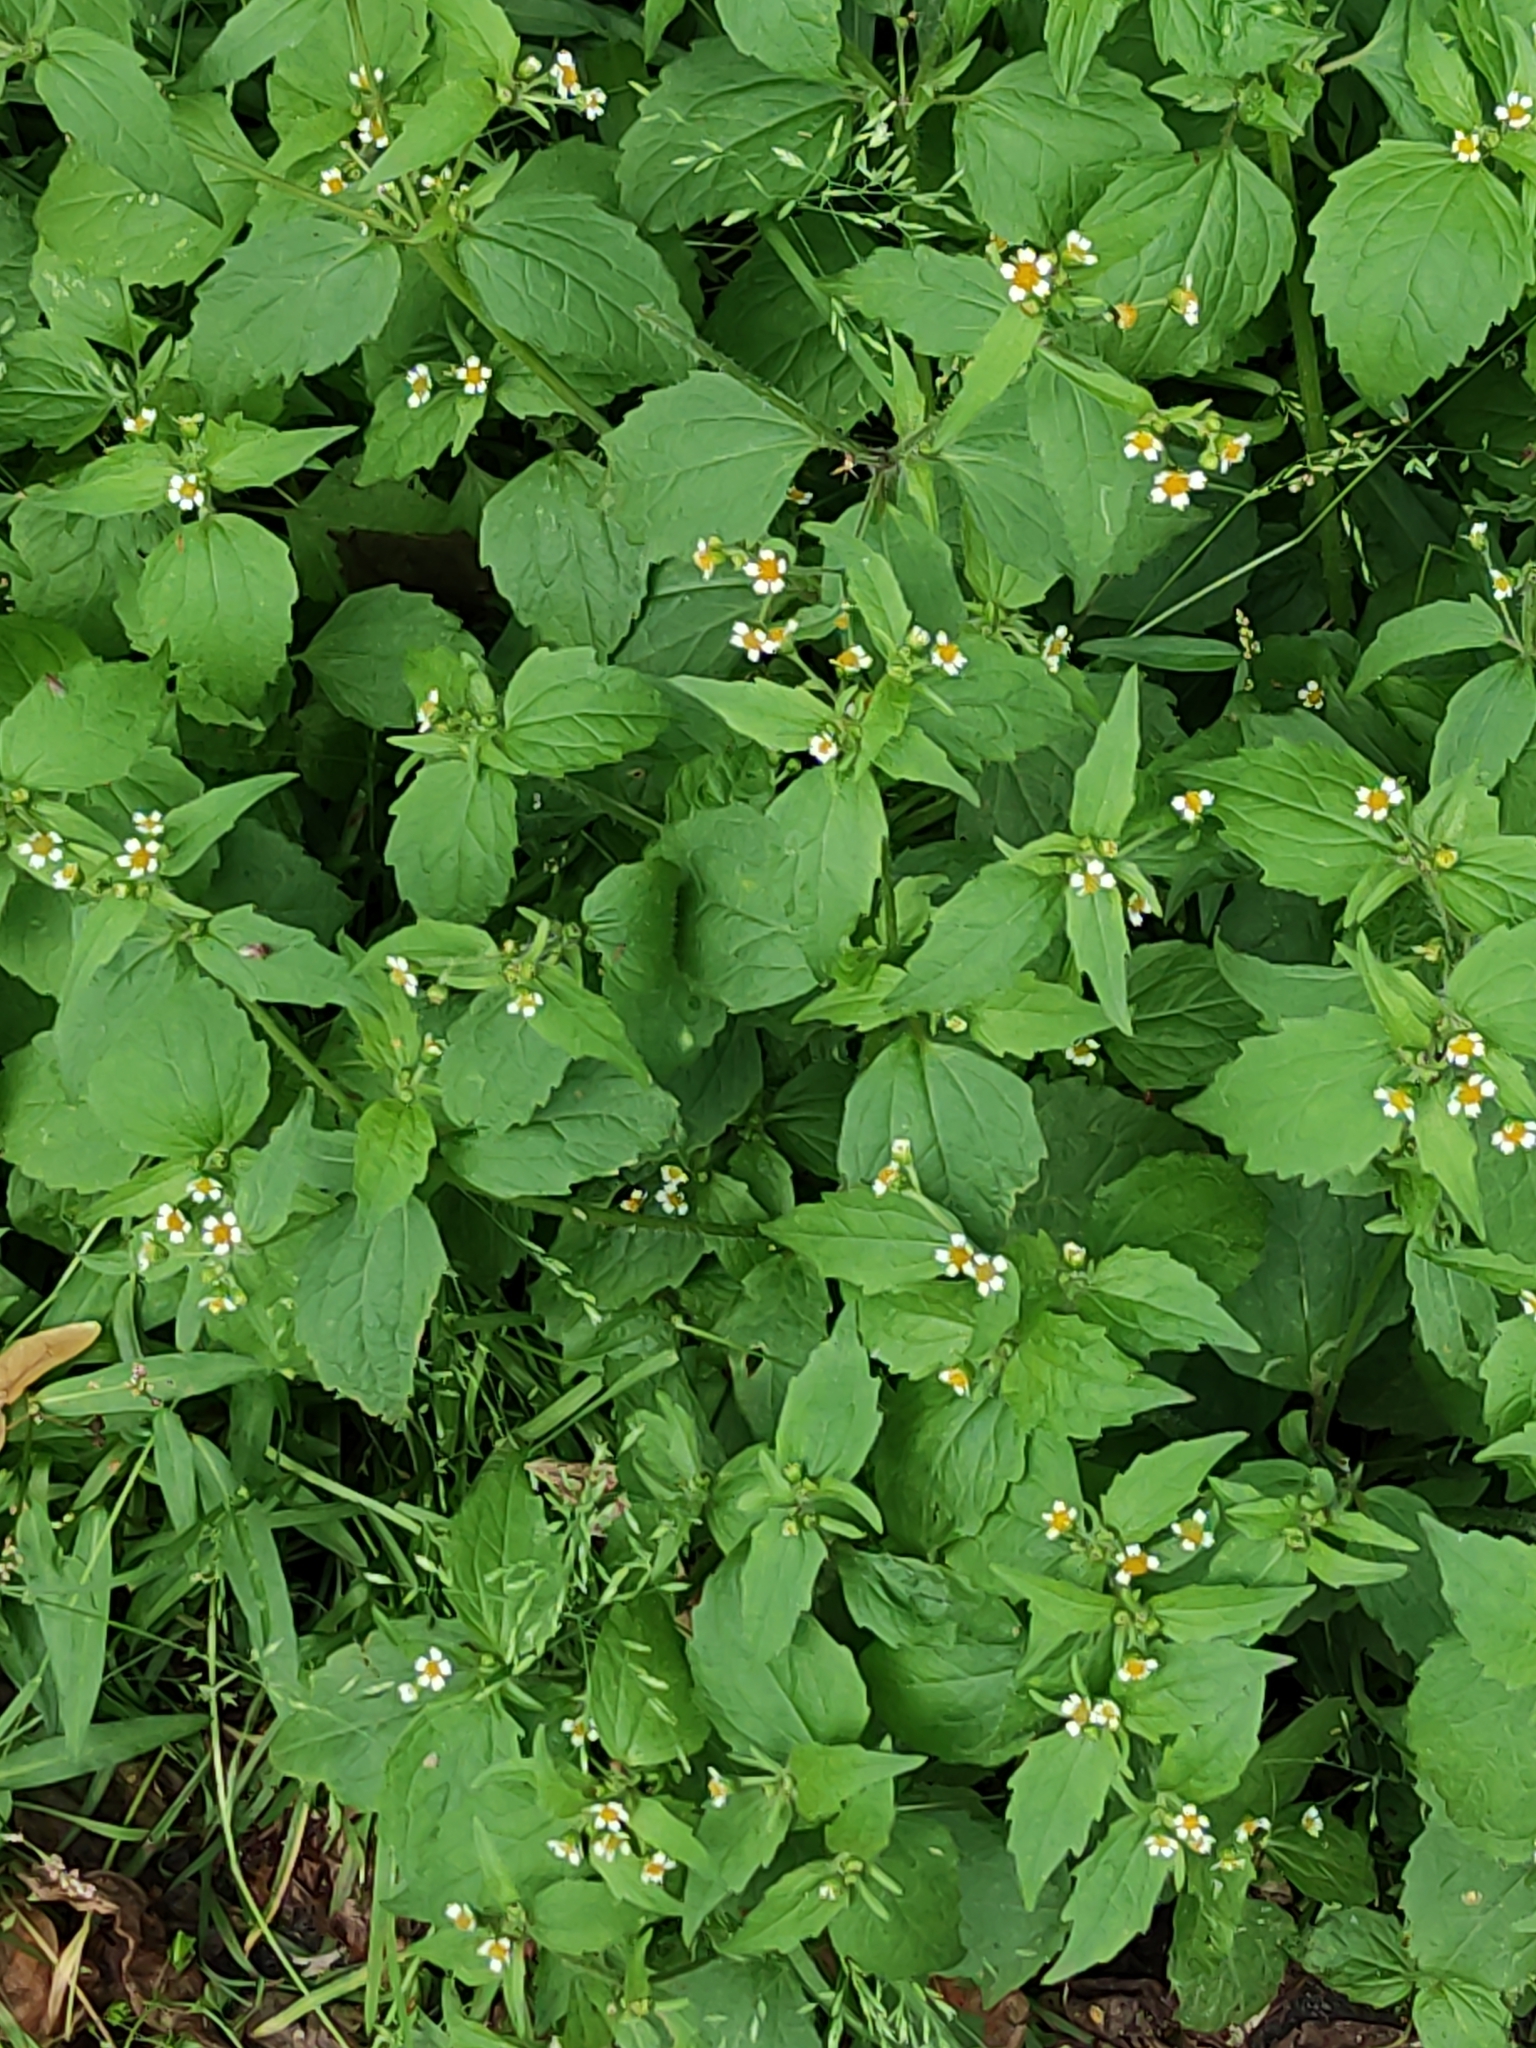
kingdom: Plantae
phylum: Tracheophyta
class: Magnoliopsida
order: Asterales
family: Asteraceae
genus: Galinsoga
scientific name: Galinsoga quadriradiata
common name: Shaggy soldier
